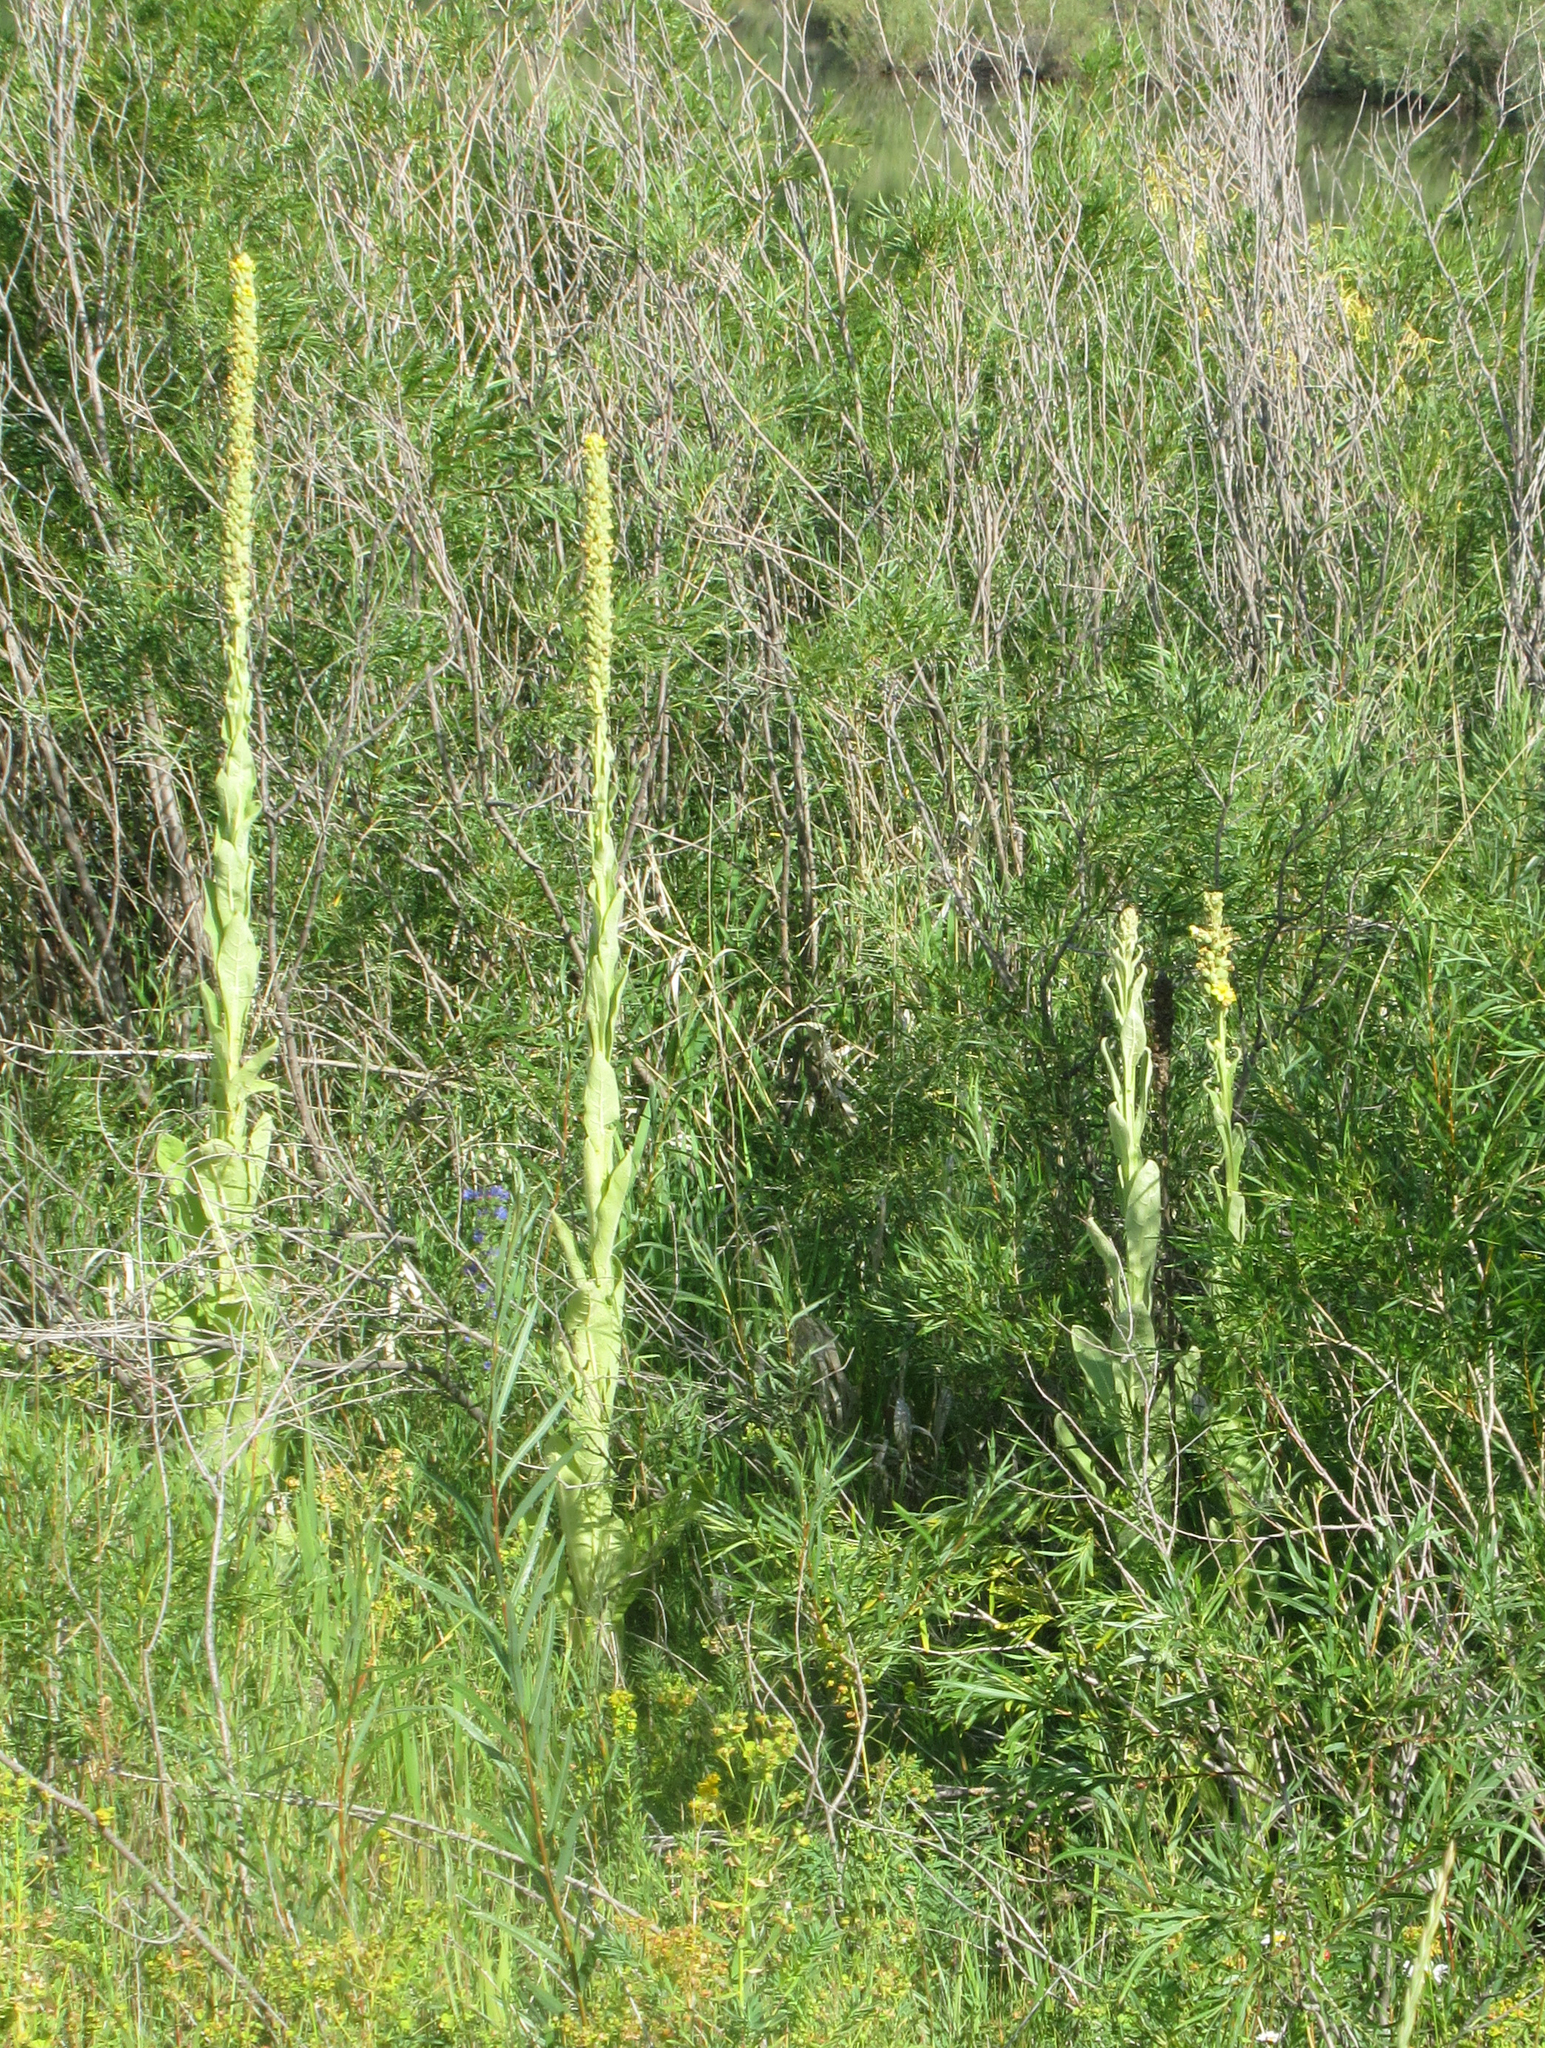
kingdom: Plantae
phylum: Tracheophyta
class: Magnoliopsida
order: Lamiales
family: Scrophulariaceae
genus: Verbascum
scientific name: Verbascum thapsus
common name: Common mullein
